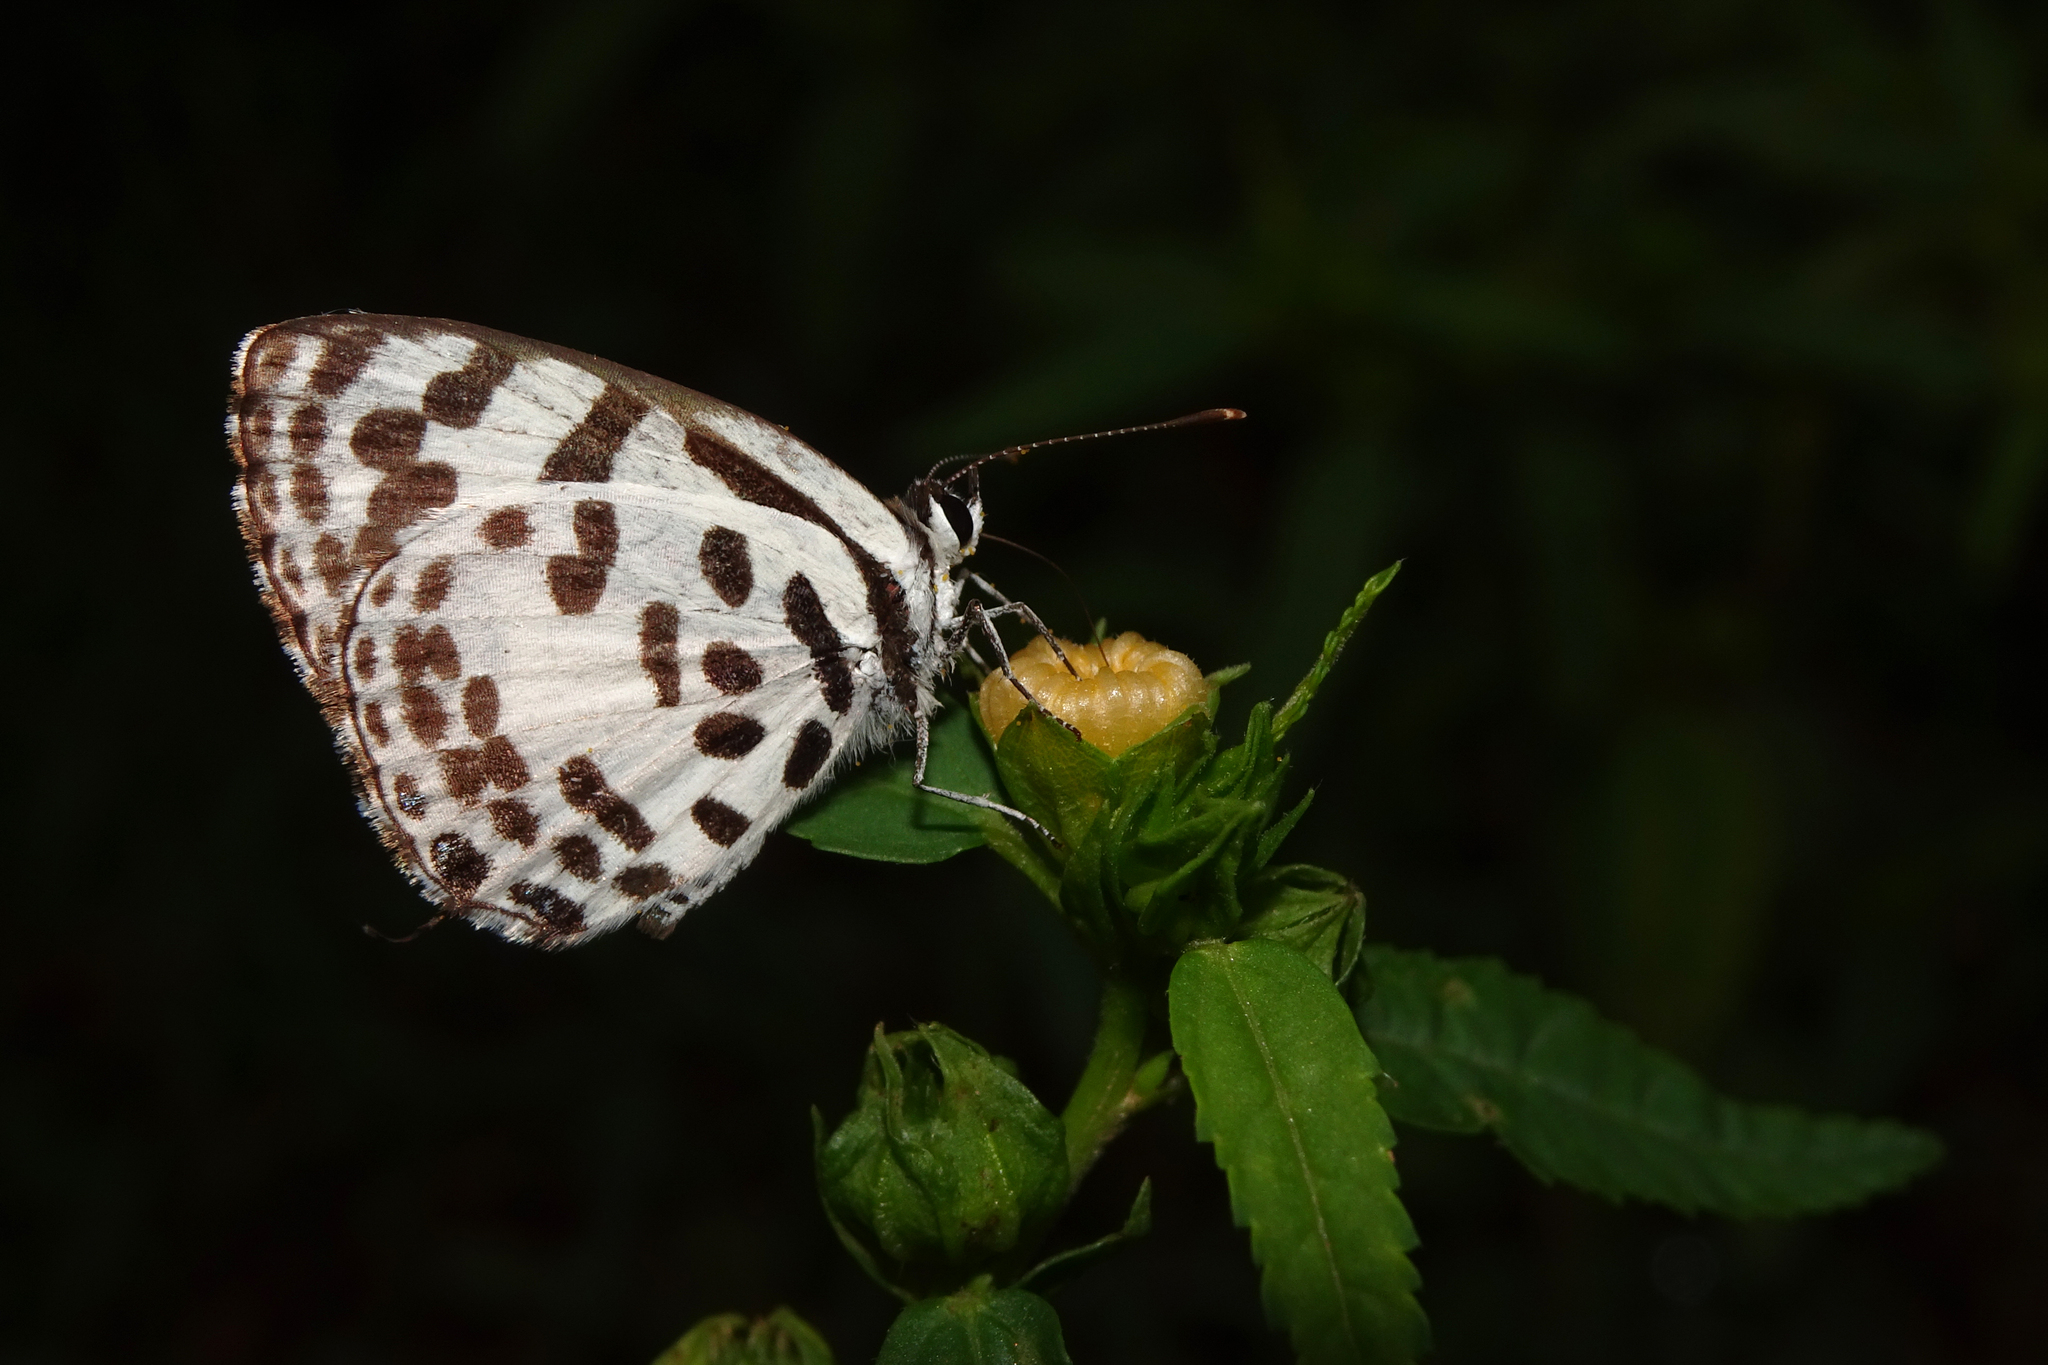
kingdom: Animalia
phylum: Arthropoda
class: Insecta
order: Lepidoptera
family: Lycaenidae
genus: Castalius
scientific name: Castalius rosimon
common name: Common pierrot
